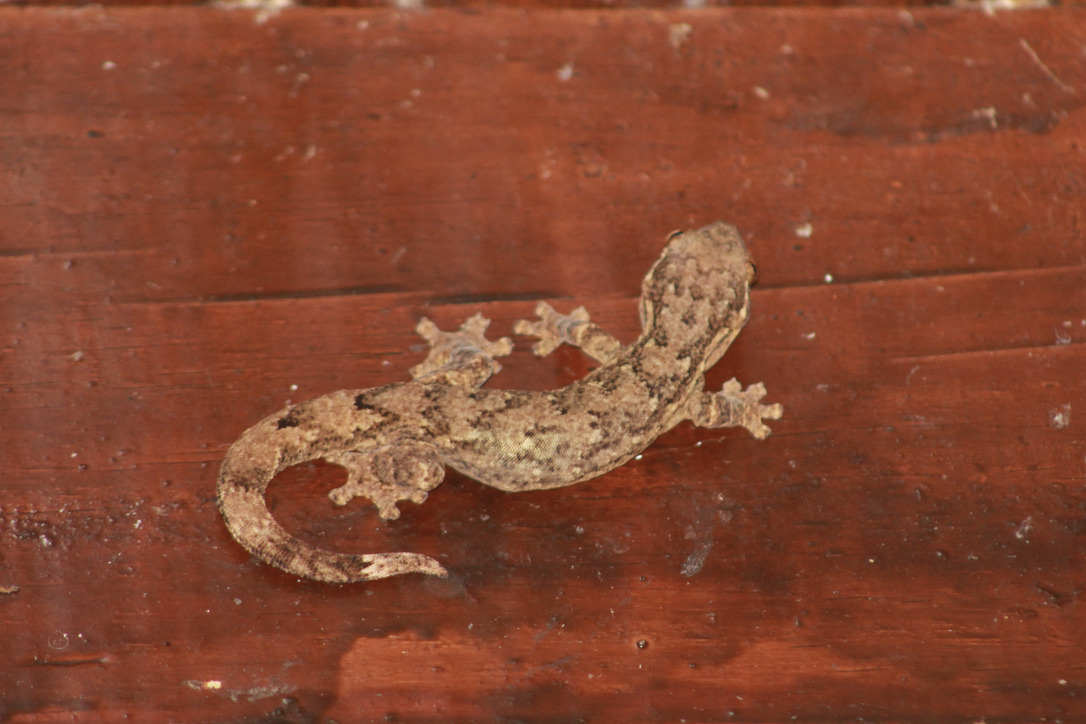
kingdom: Animalia
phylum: Chordata
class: Squamata
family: Phyllodactylidae
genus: Thecadactylus
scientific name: Thecadactylus rapicauda
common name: Turnip-tailed gecko
